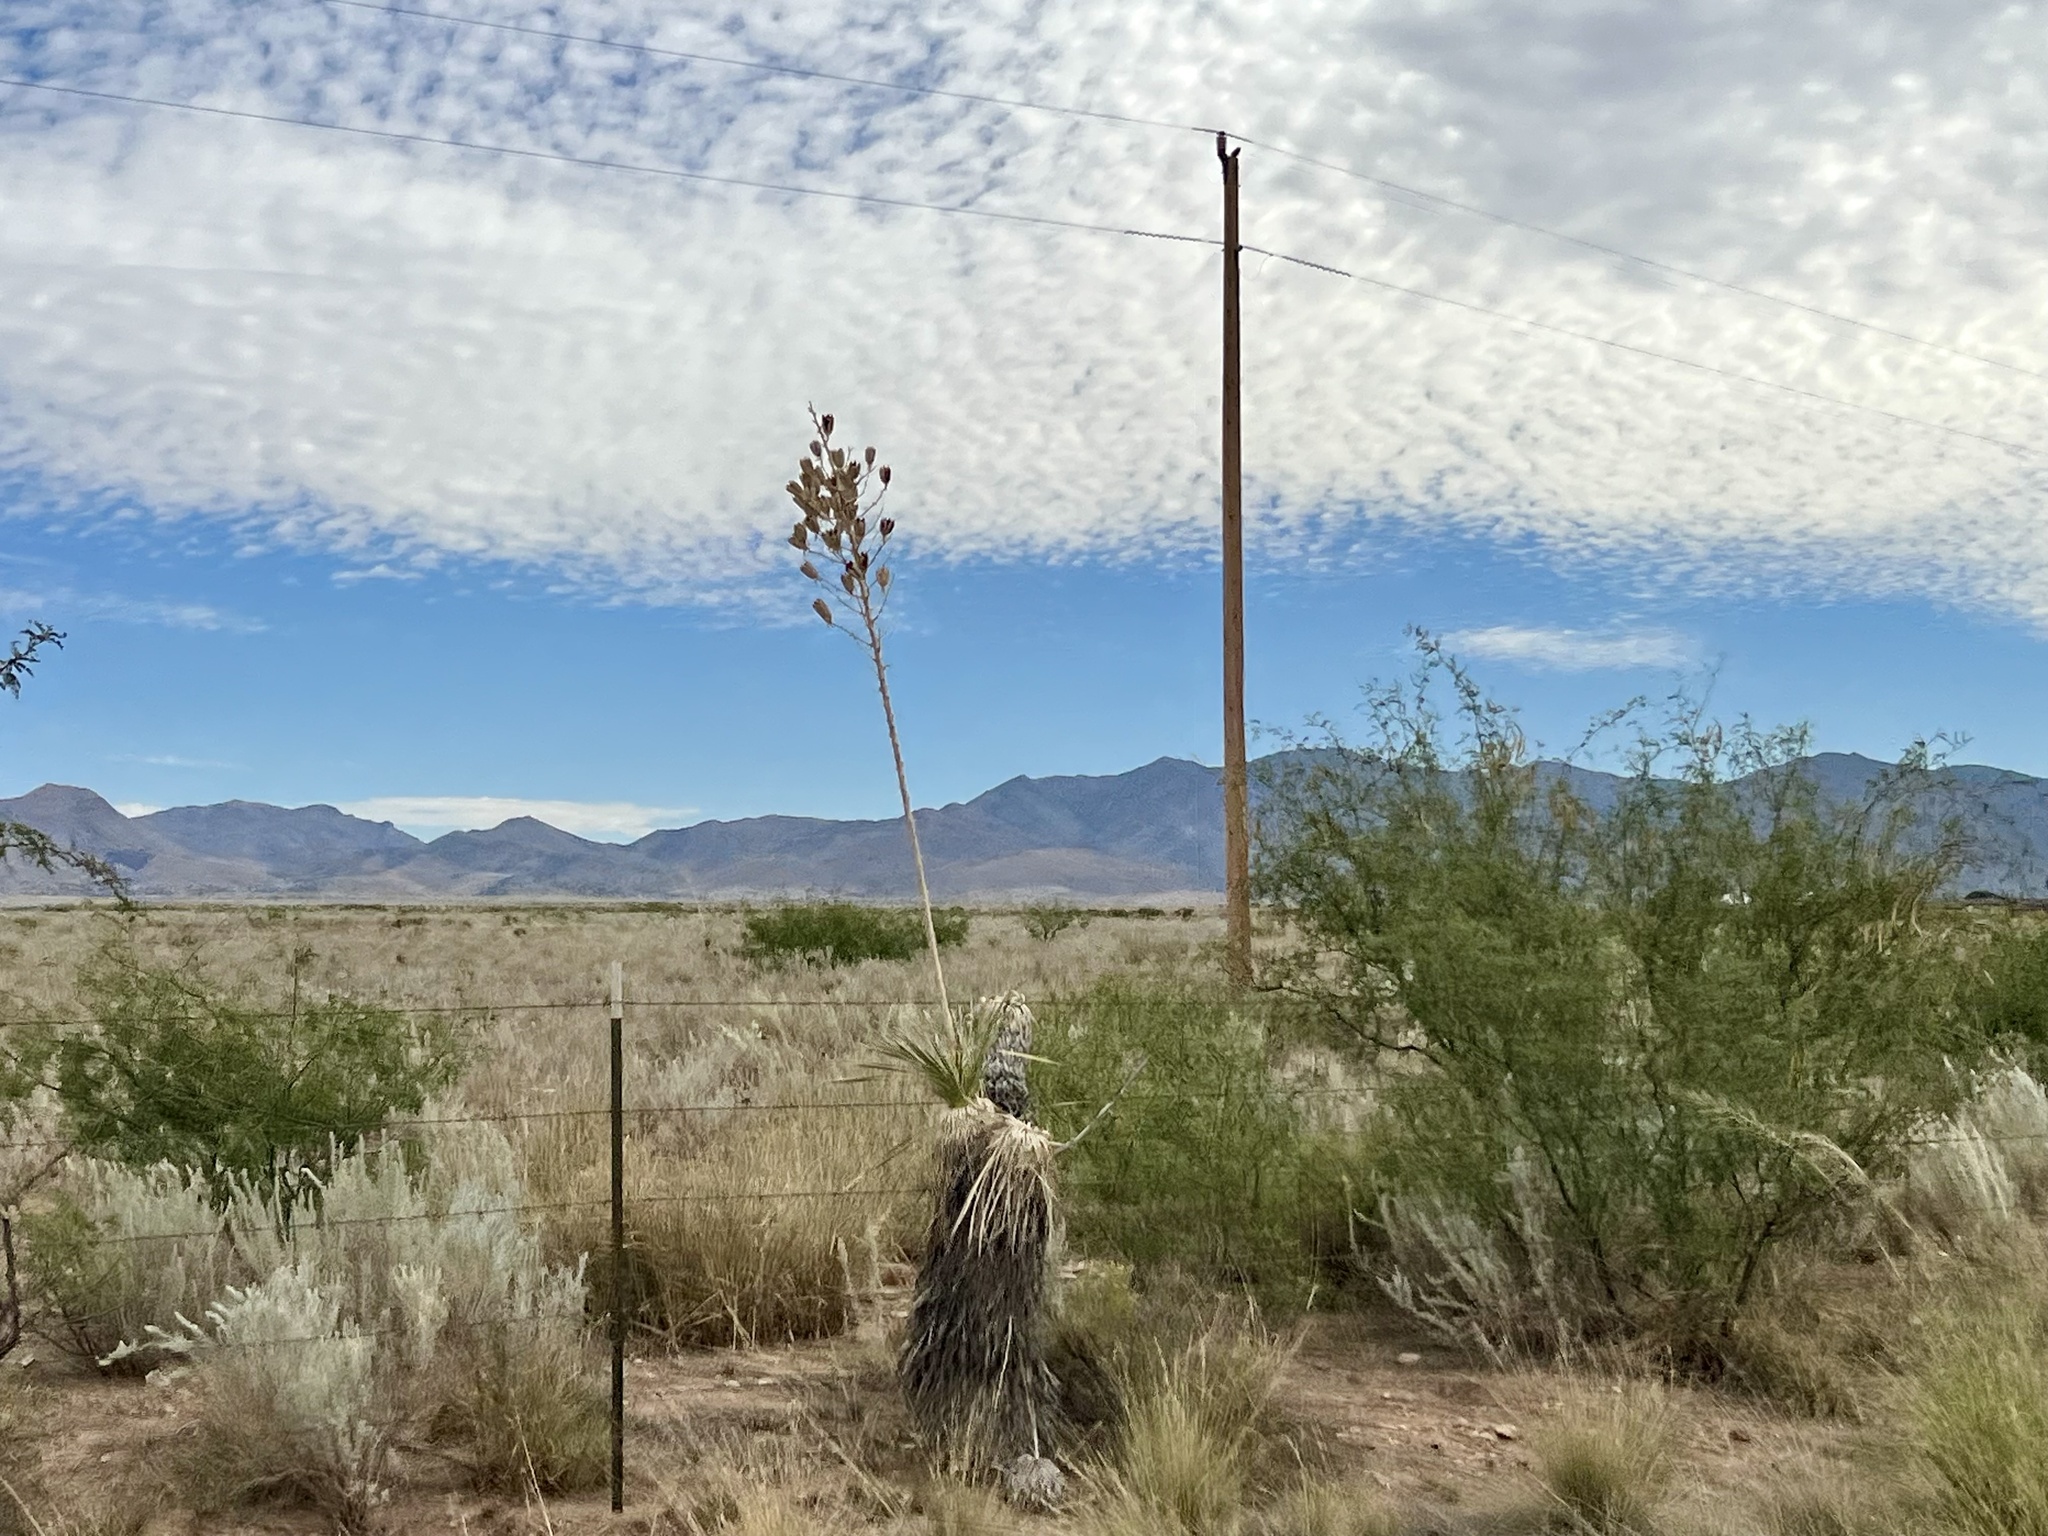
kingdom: Plantae
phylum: Tracheophyta
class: Liliopsida
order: Asparagales
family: Asparagaceae
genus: Yucca
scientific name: Yucca elata
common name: Palmella
